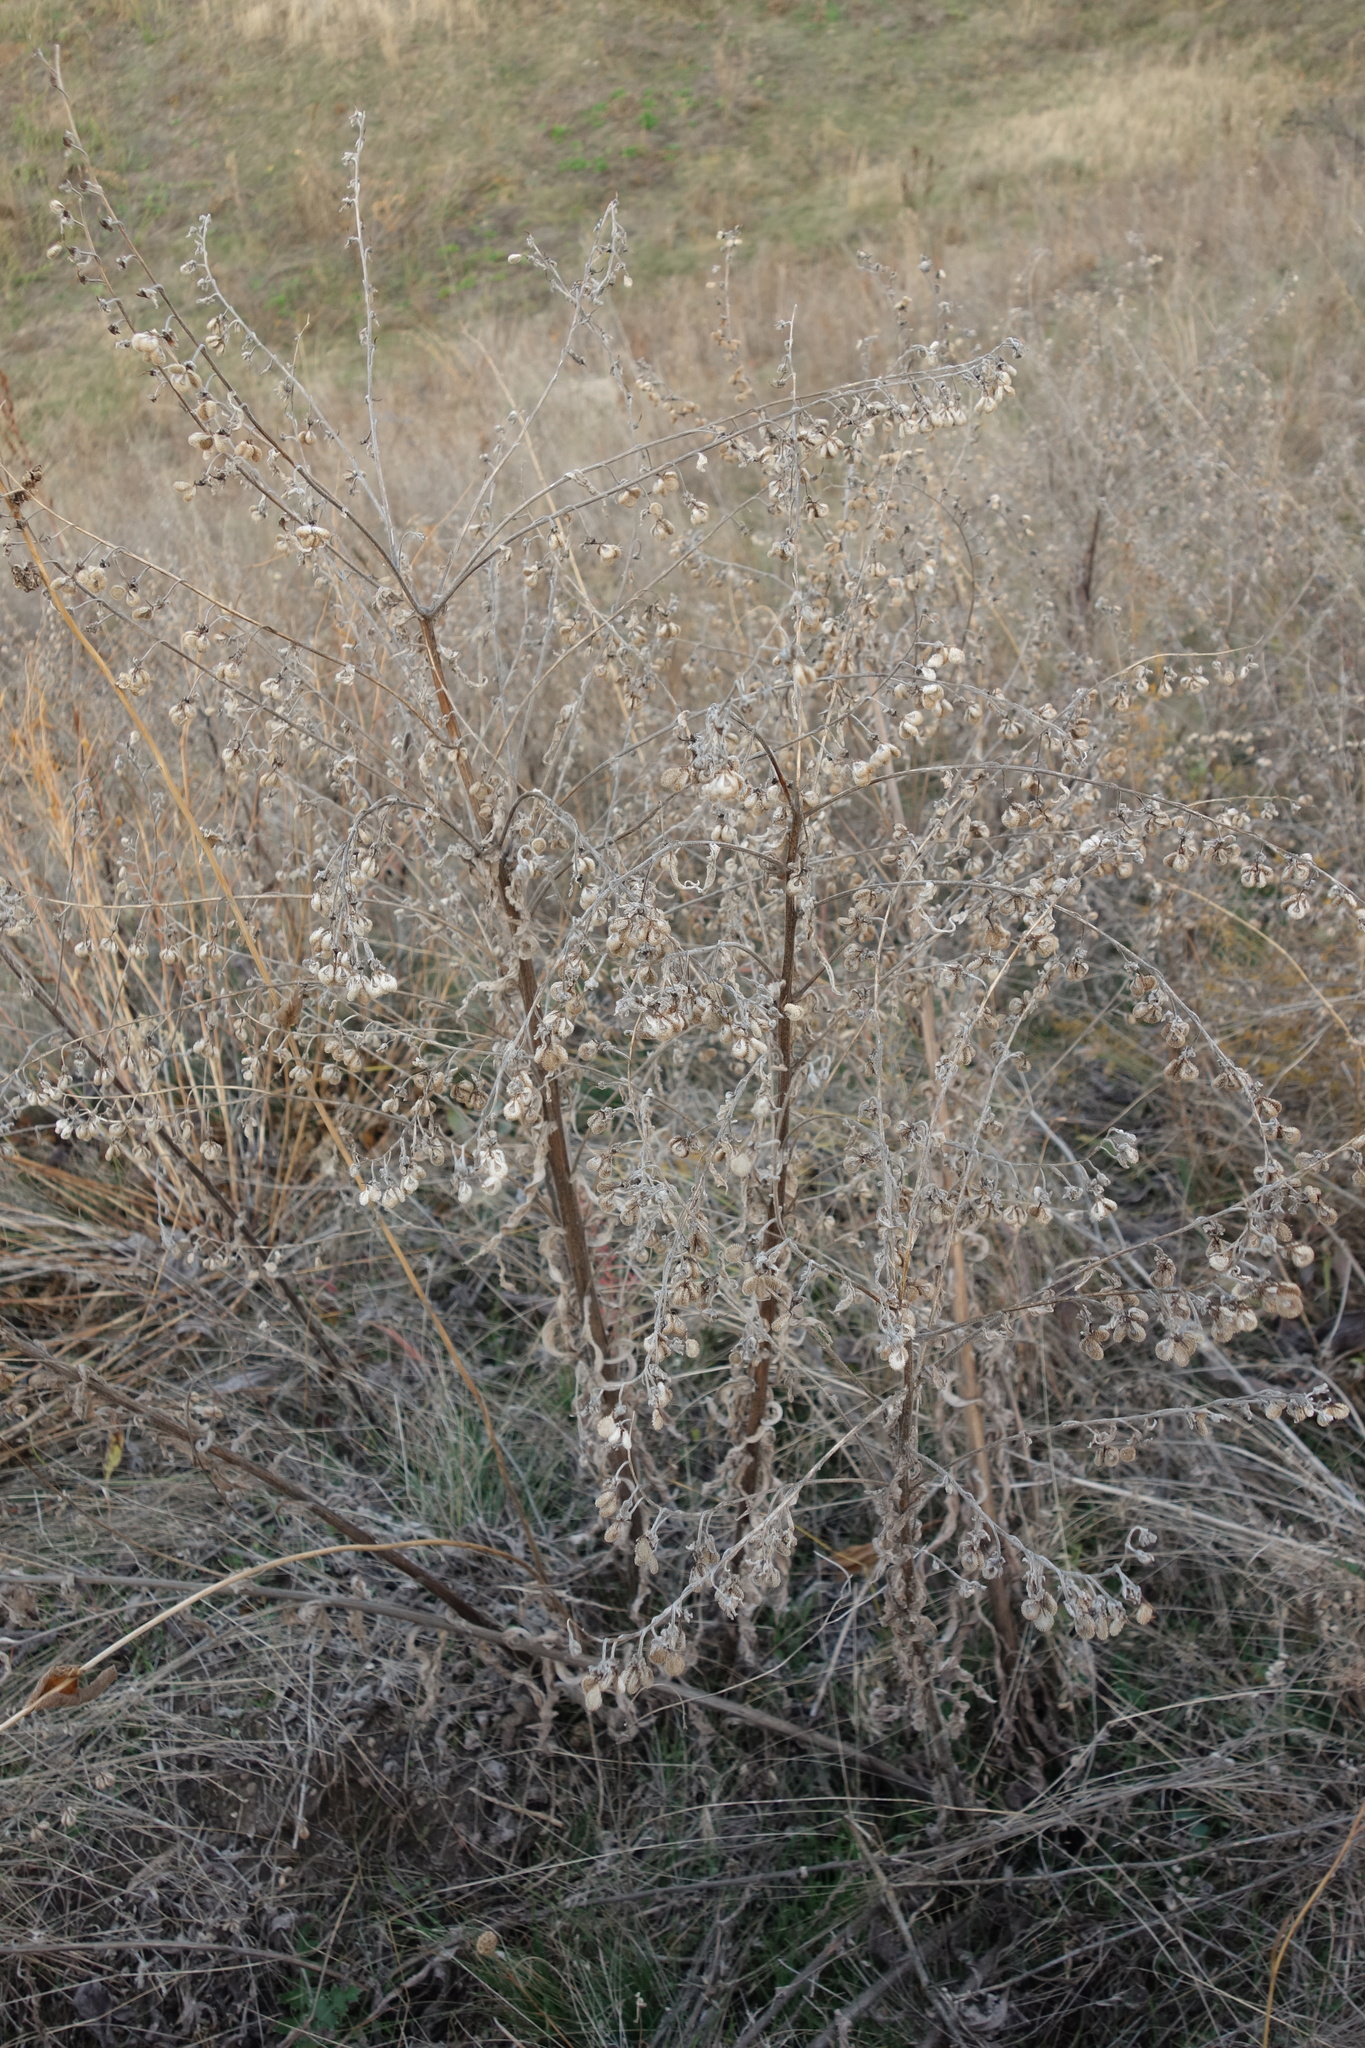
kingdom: Plantae
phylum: Tracheophyta
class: Magnoliopsida
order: Boraginales
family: Boraginaceae
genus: Cynoglossum
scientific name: Cynoglossum officinale
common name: Hound's-tongue
